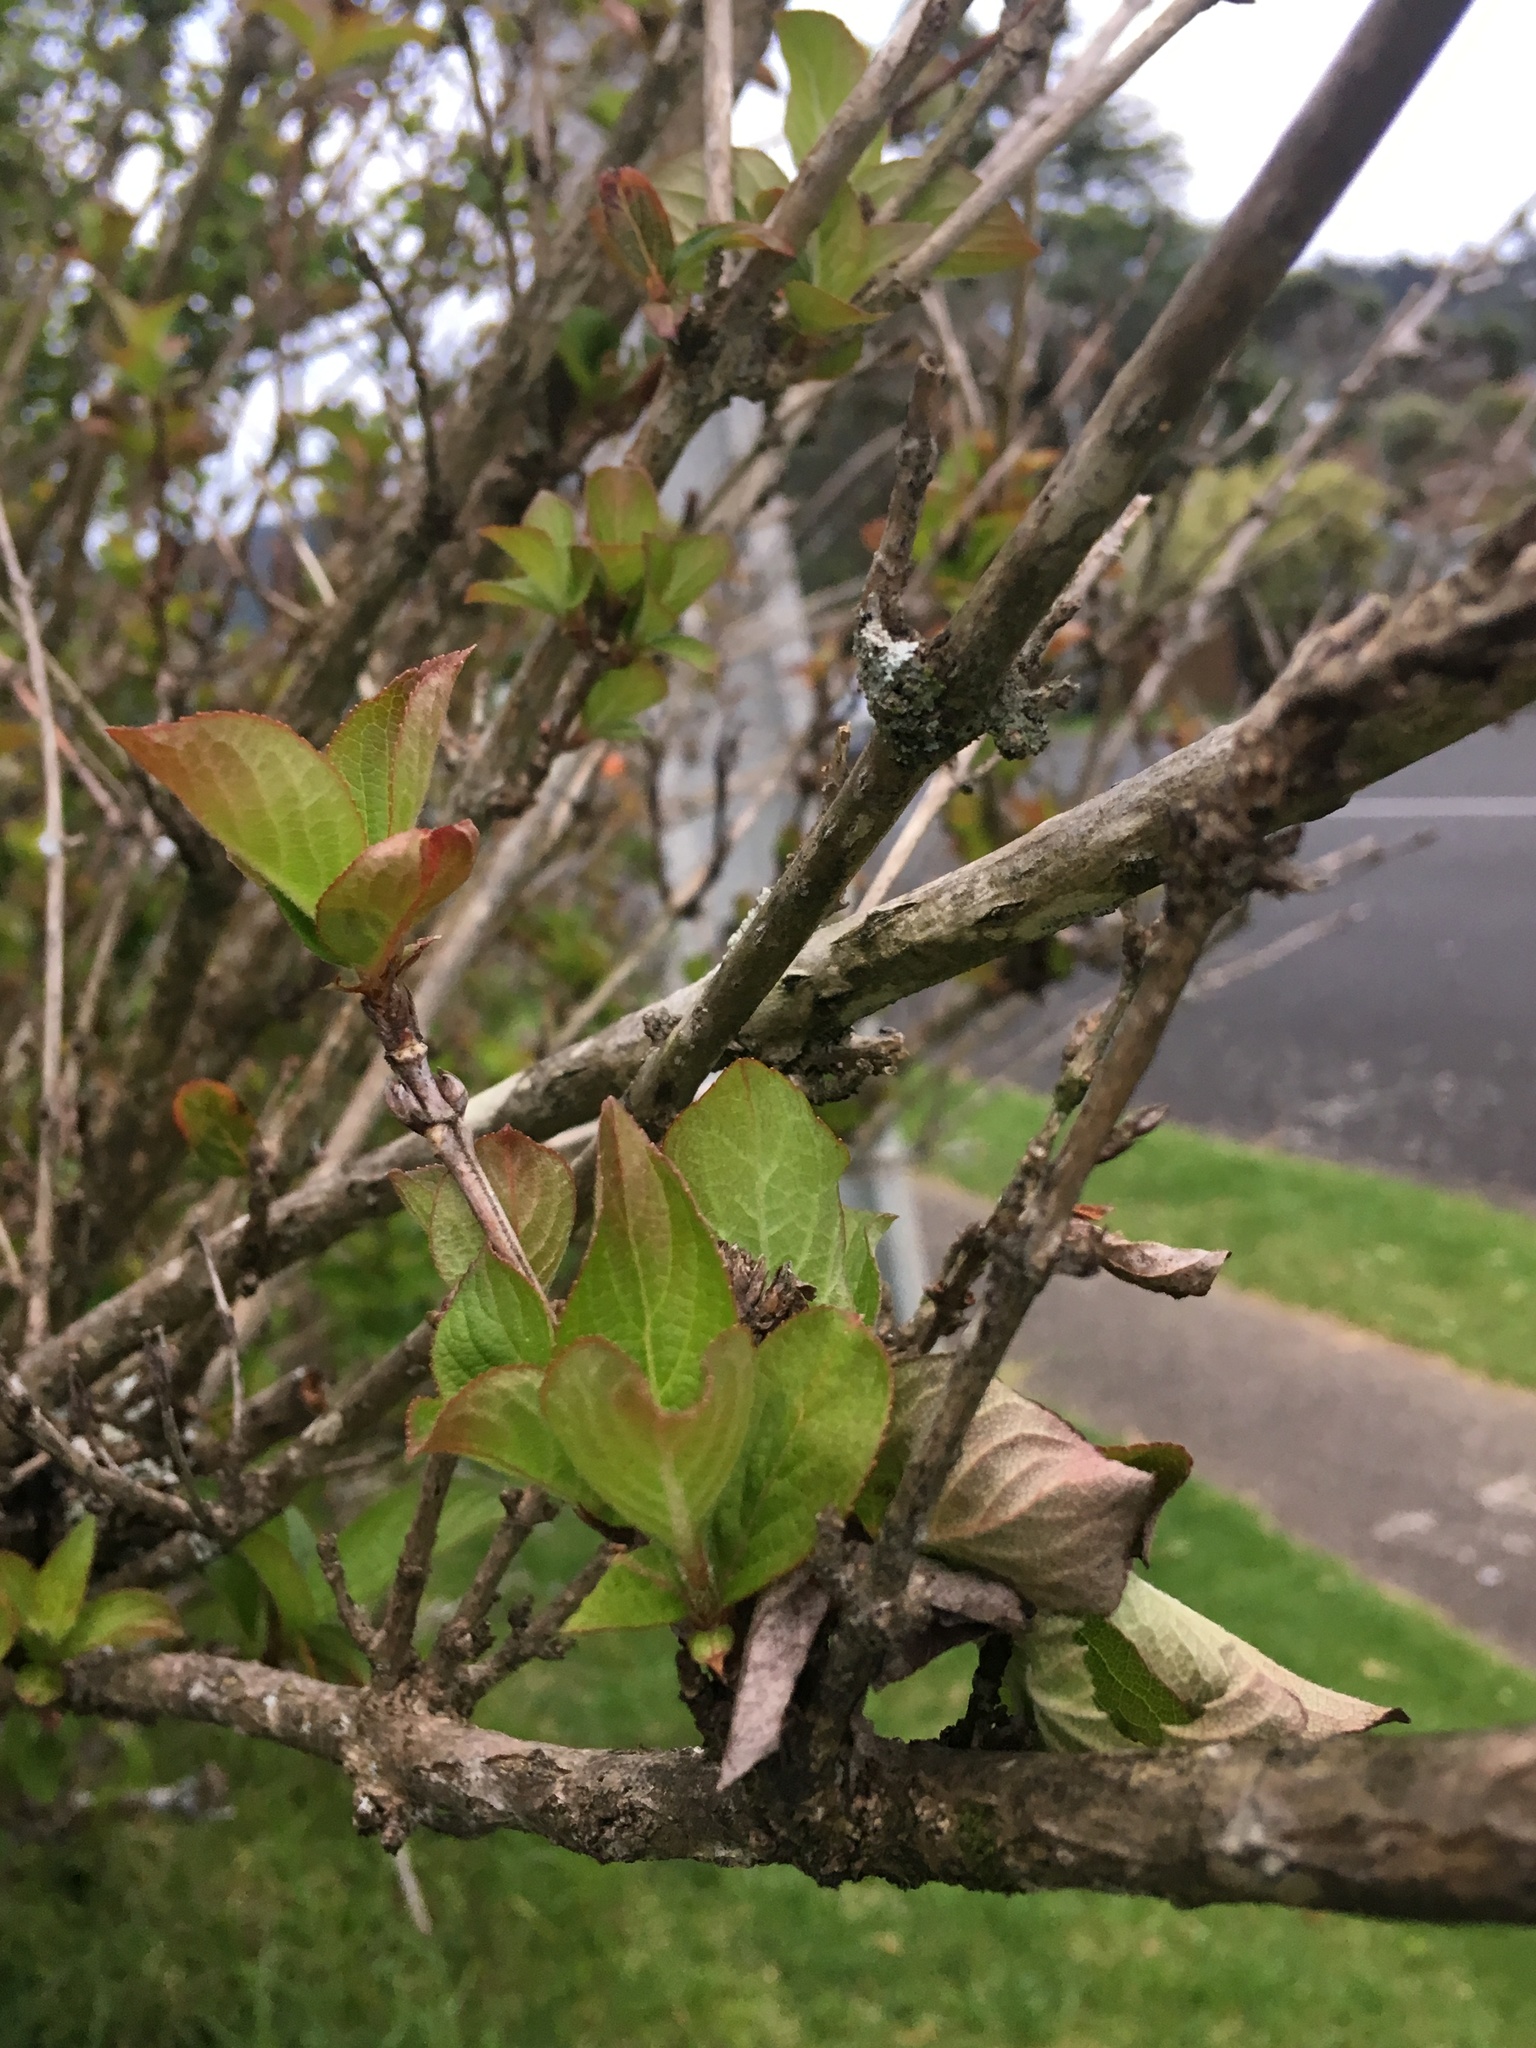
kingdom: Plantae
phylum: Tracheophyta
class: Magnoliopsida
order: Cornales
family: Hydrangeaceae
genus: Hydrangea
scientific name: Hydrangea macrophylla
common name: Hydrangea
